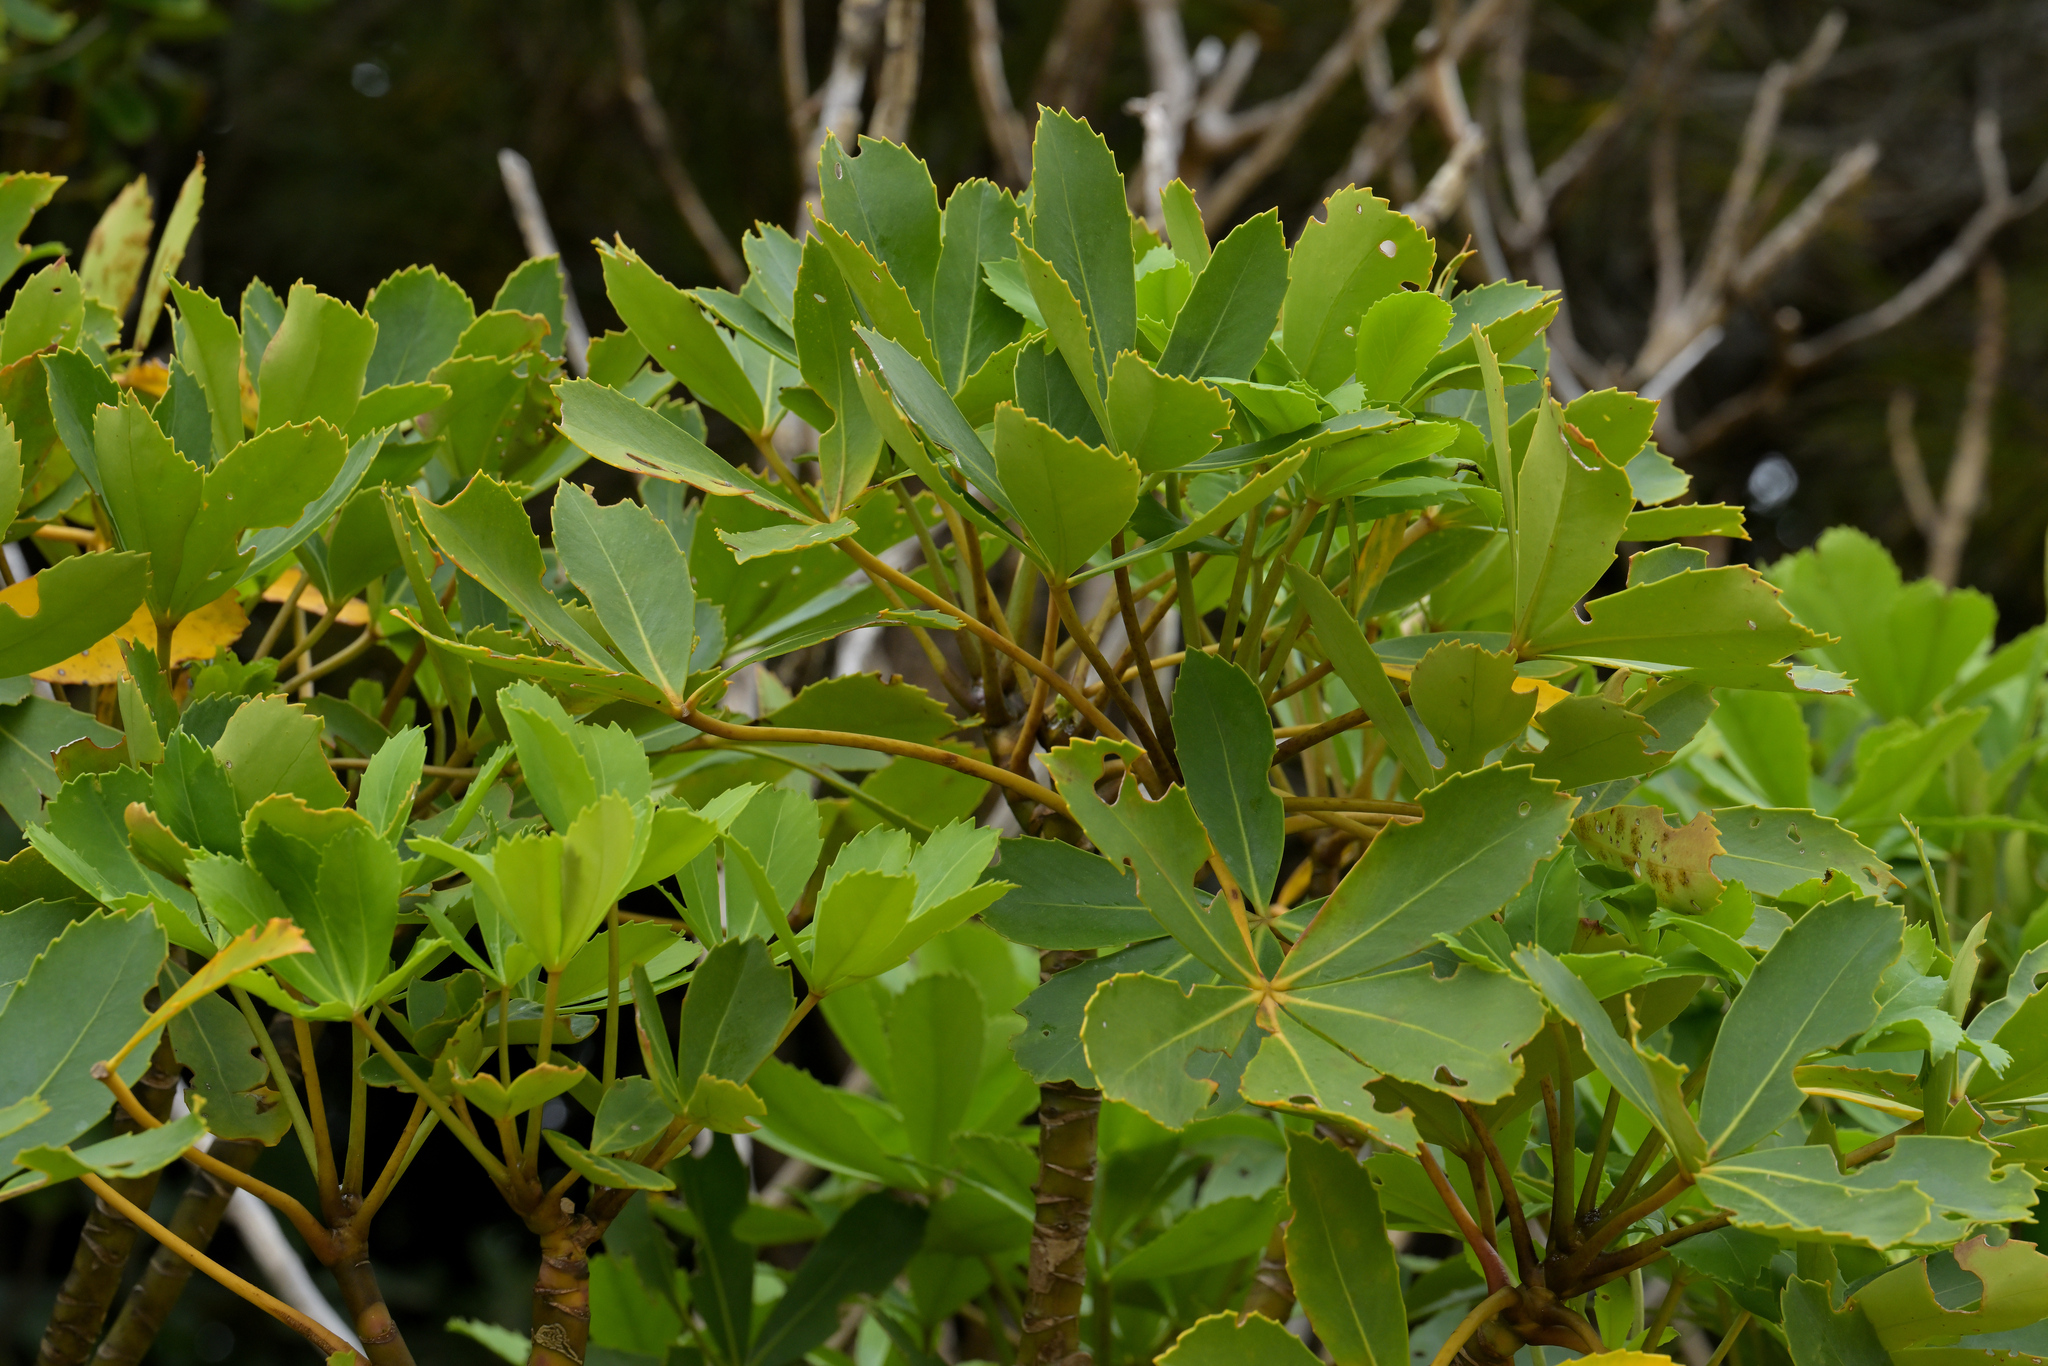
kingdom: Plantae
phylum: Tracheophyta
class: Magnoliopsida
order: Apiales
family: Araliaceae
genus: Neopanax
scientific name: Neopanax colensoi
